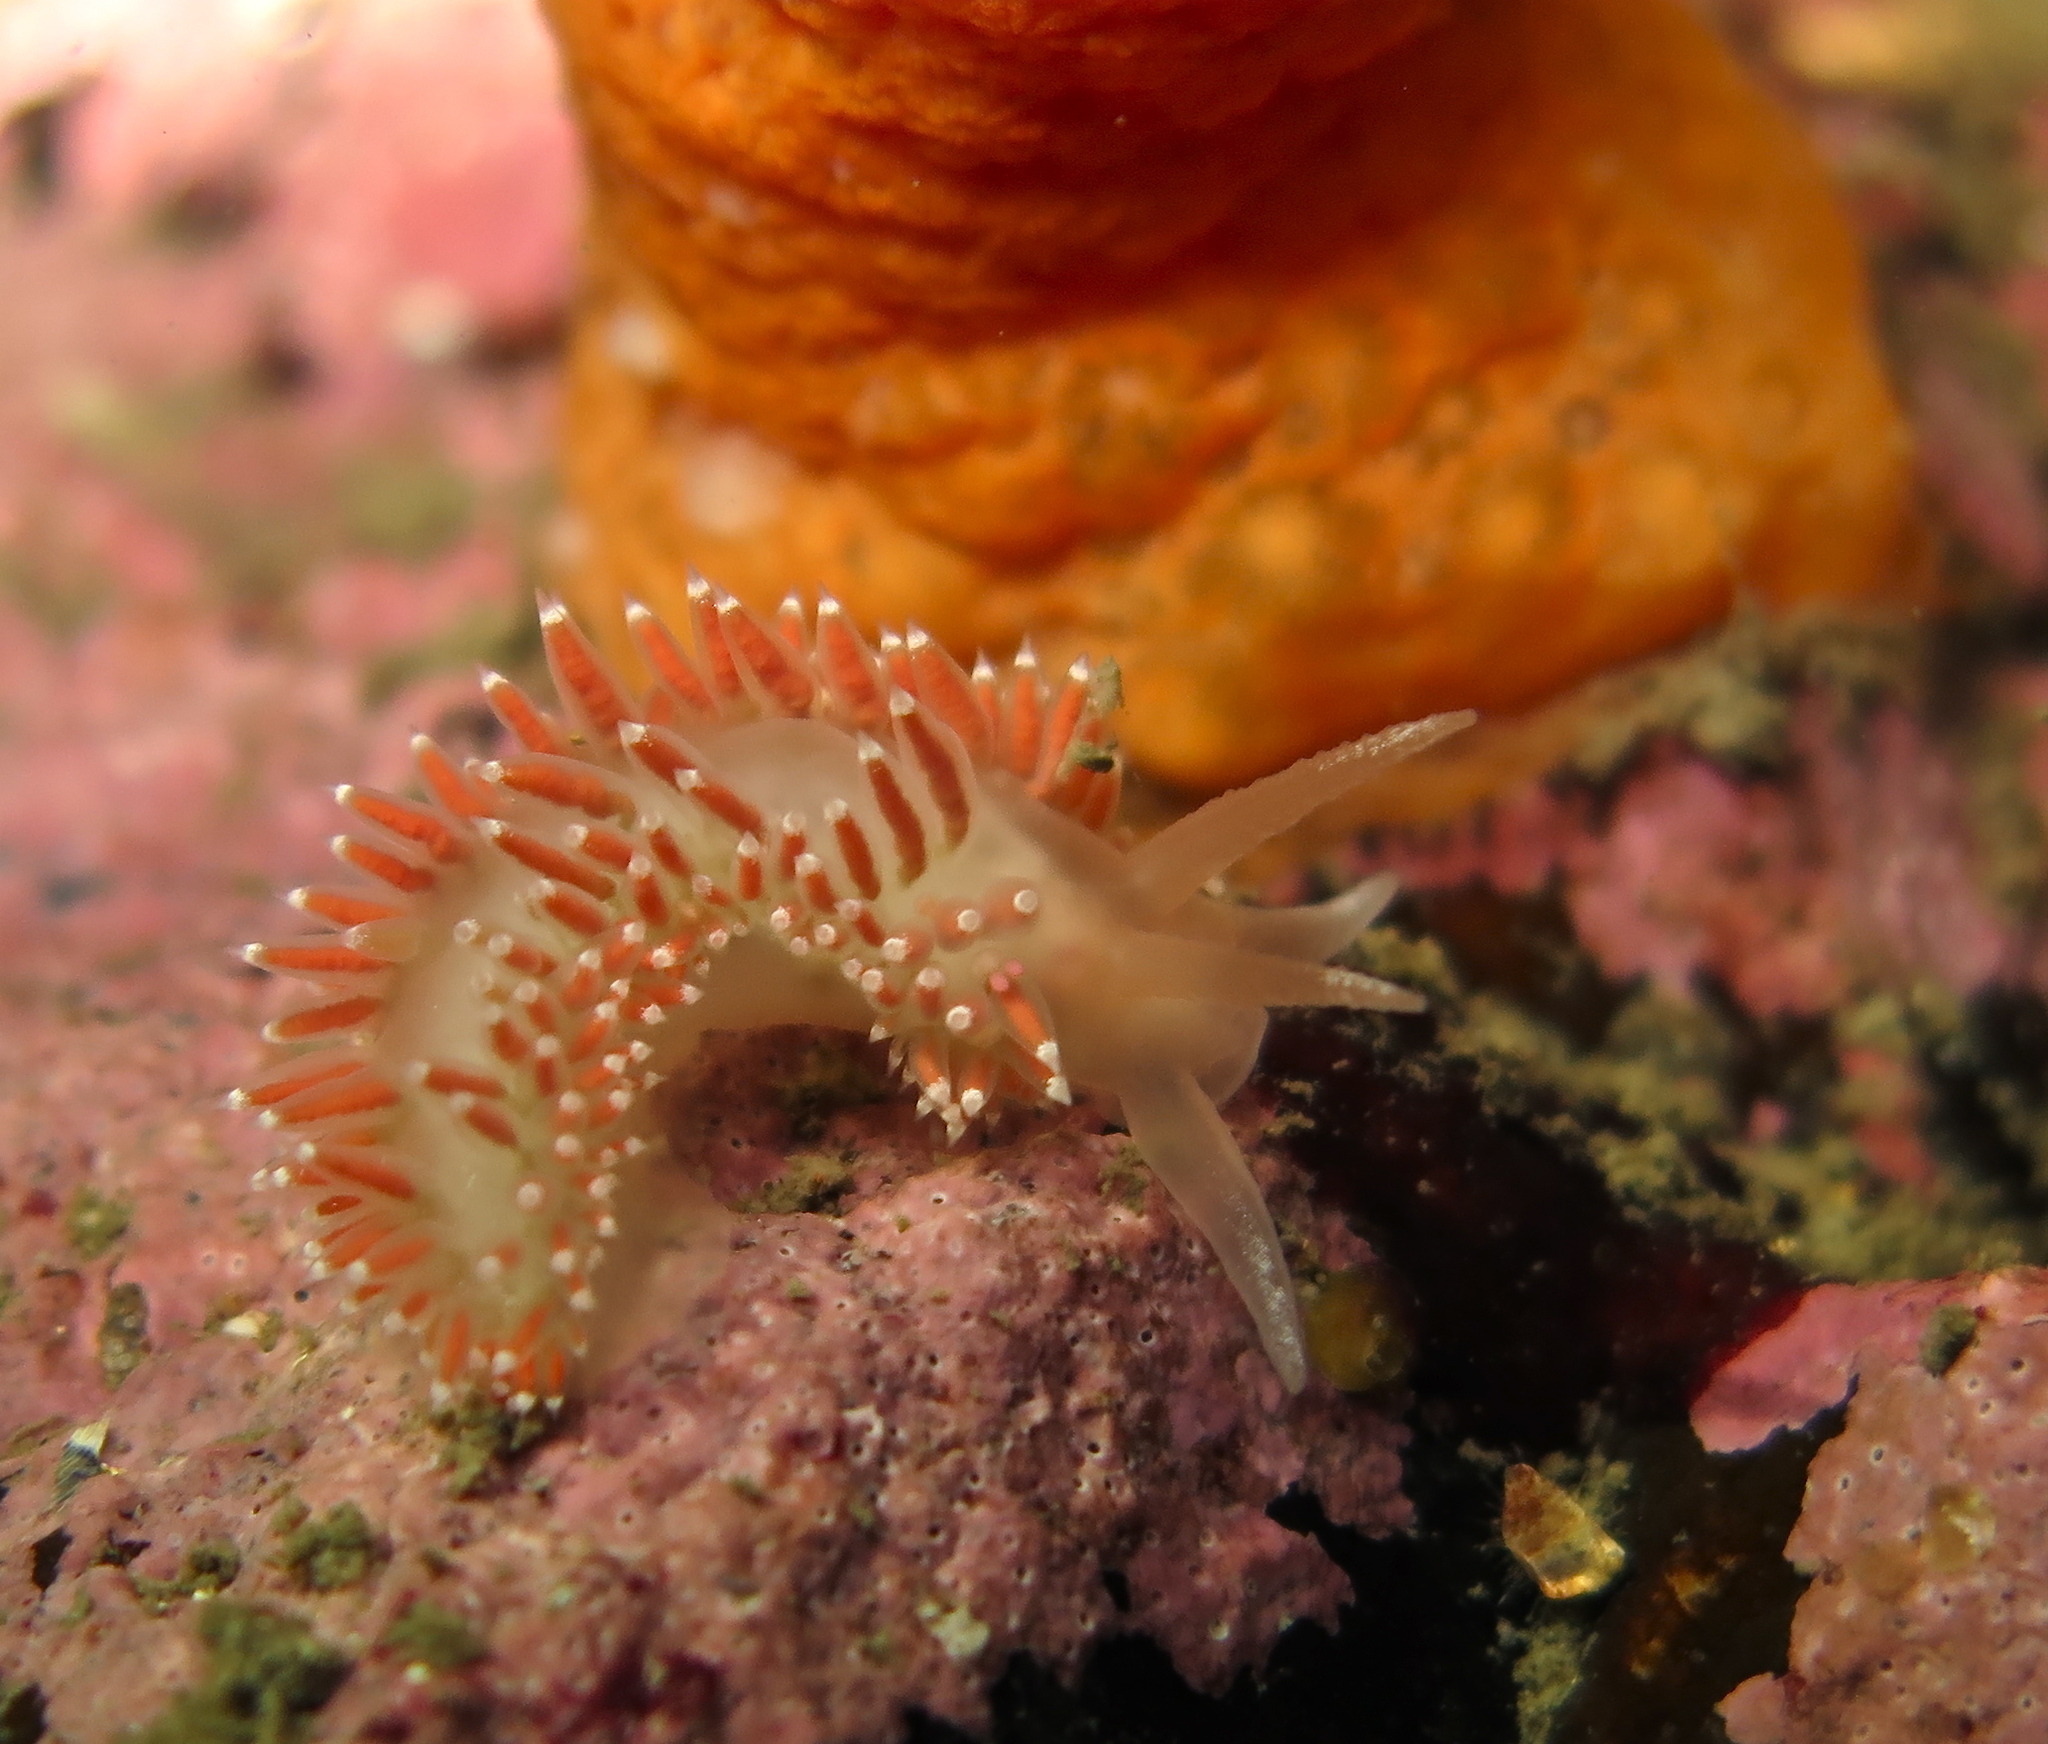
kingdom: Animalia
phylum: Mollusca
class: Gastropoda
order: Nudibranchia
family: Coryphellidae
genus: Coryphella
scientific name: Coryphella verrucosa
